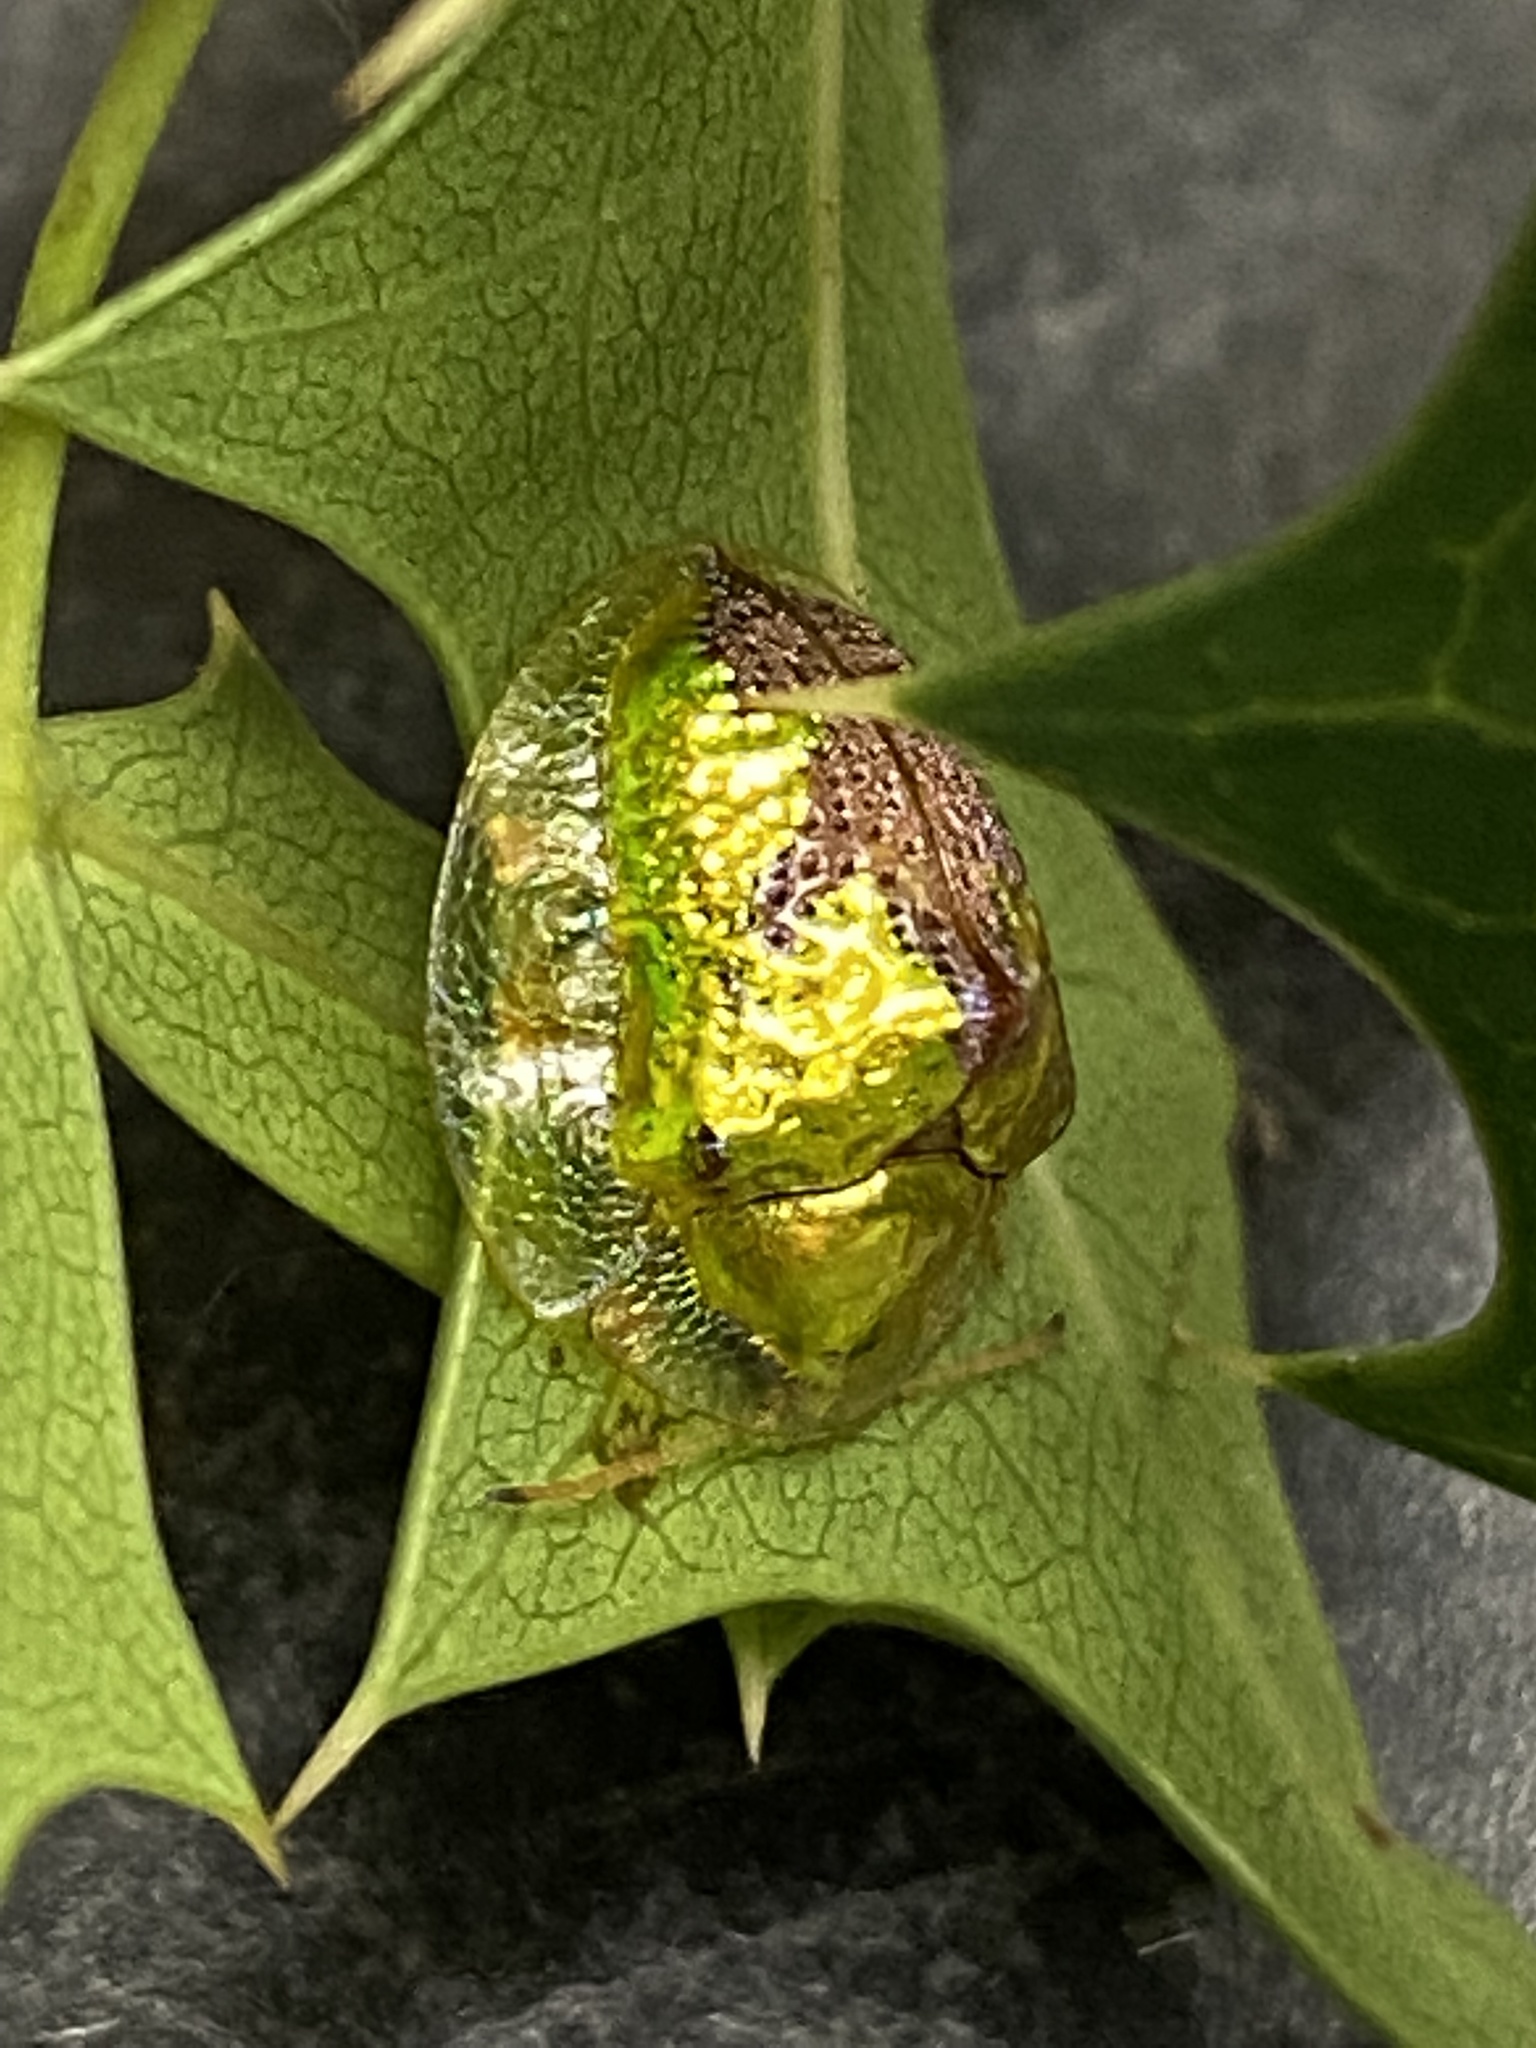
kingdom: Animalia
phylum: Arthropoda
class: Insecta
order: Coleoptera
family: Chrysomelidae
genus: Coptocycla
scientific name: Coptocycla texana
